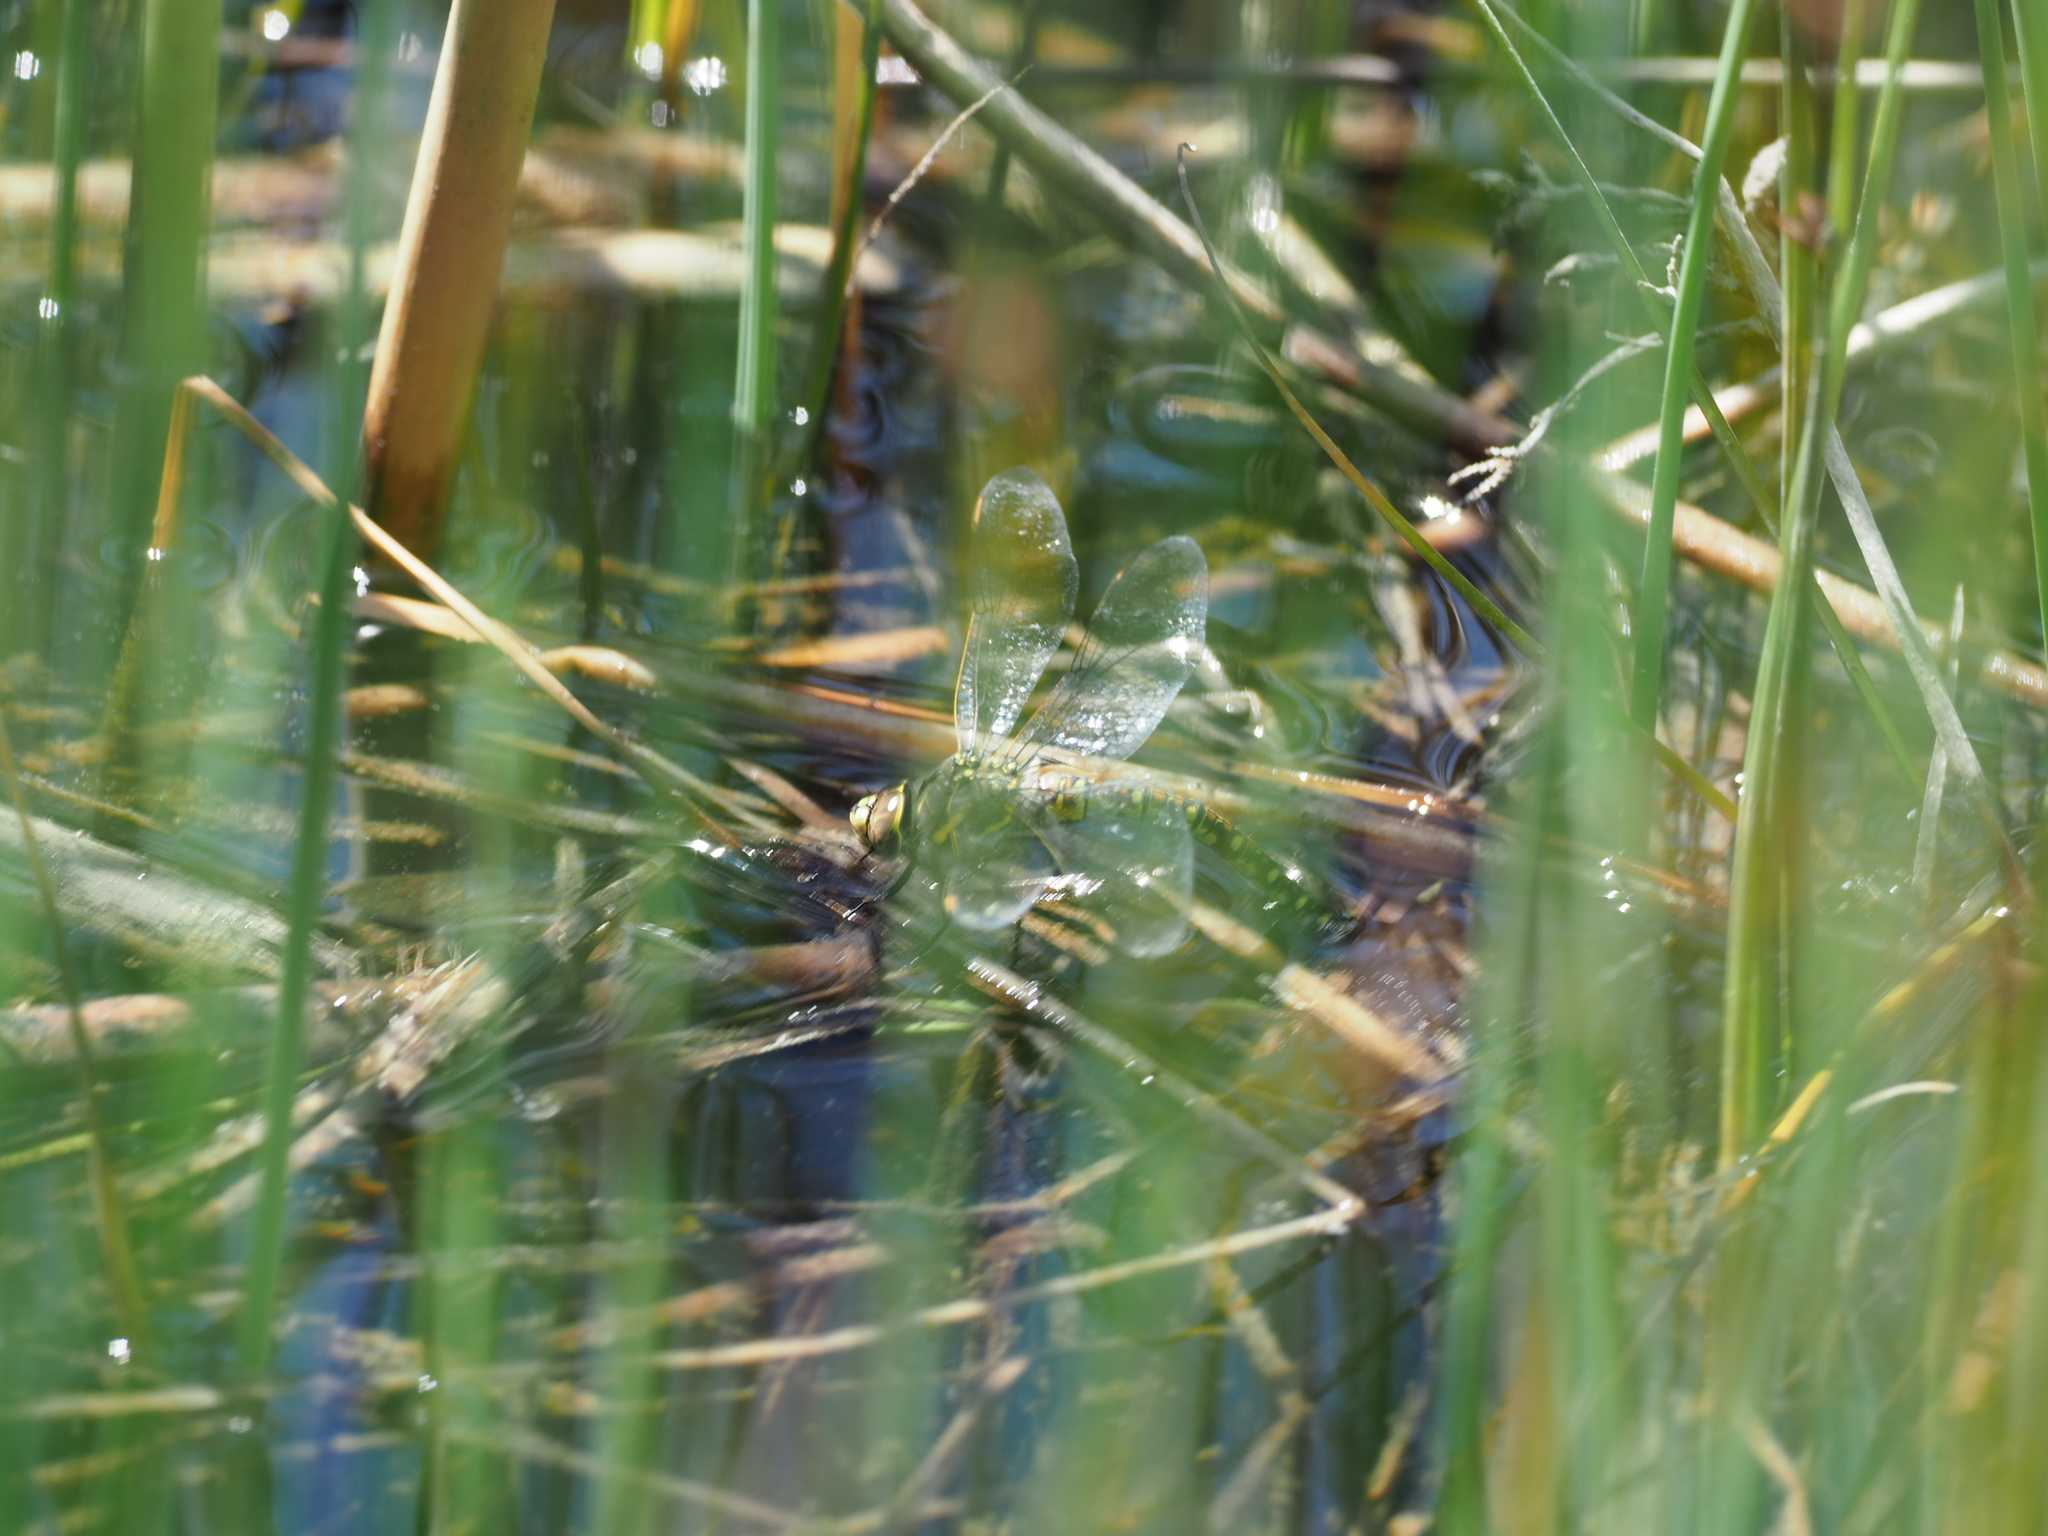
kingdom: Animalia
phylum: Arthropoda
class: Insecta
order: Odonata
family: Aeshnidae
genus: Rhionaeschna
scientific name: Rhionaeschna californica
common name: California darner
